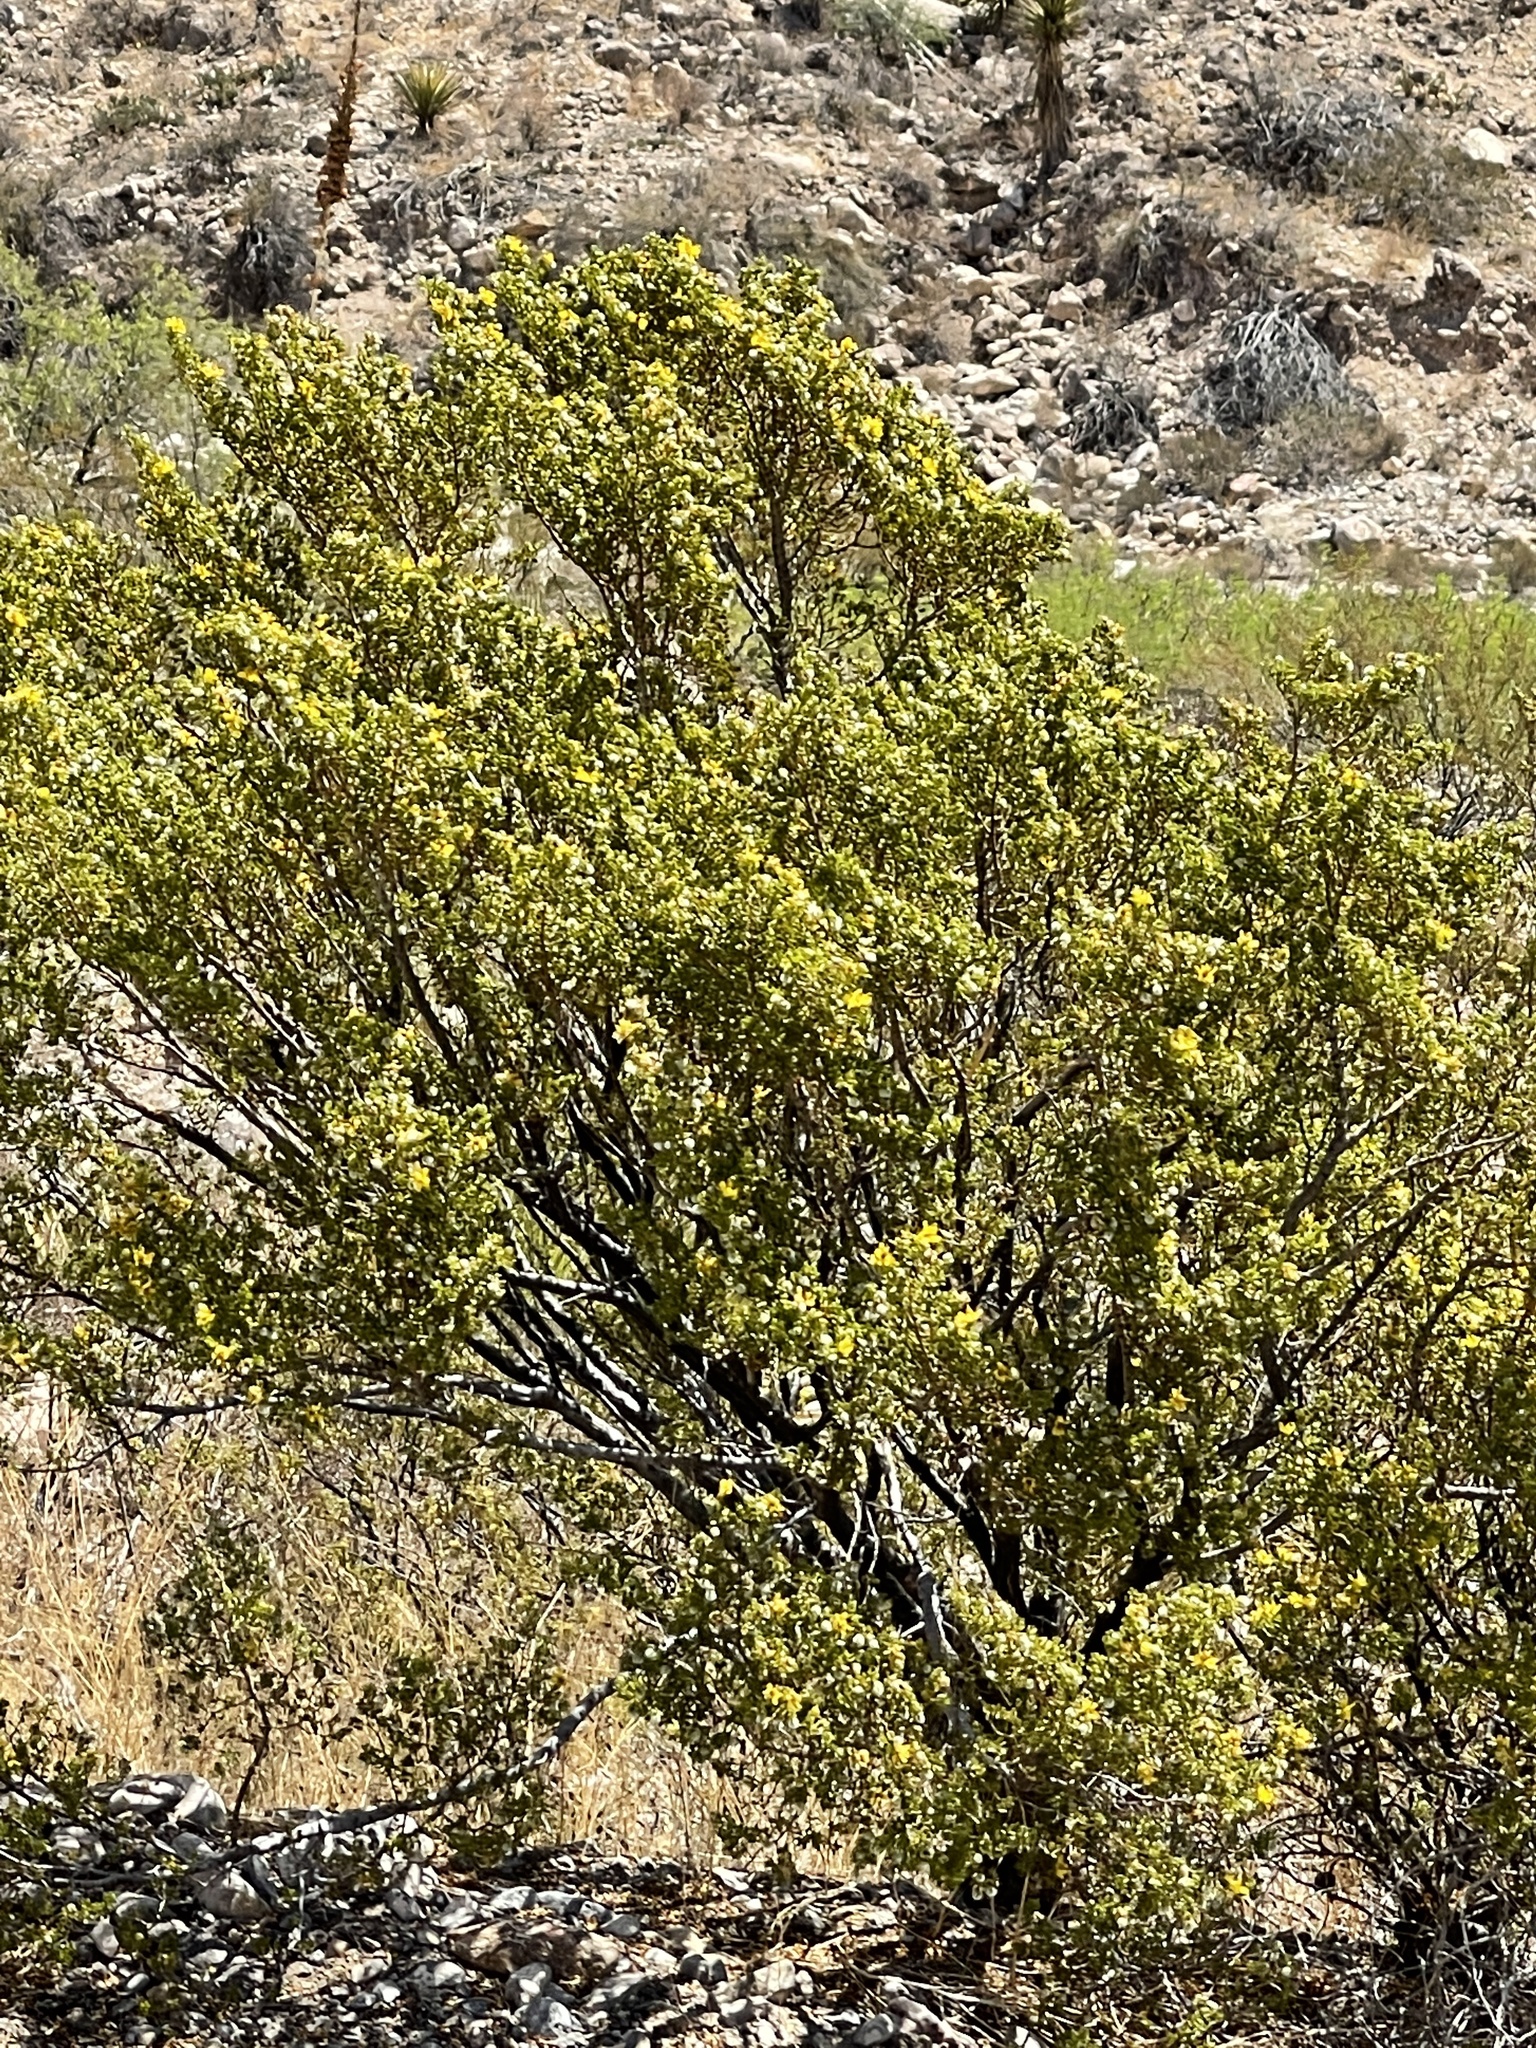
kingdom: Plantae
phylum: Tracheophyta
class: Magnoliopsida
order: Zygophyllales
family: Zygophyllaceae
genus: Larrea
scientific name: Larrea tridentata
